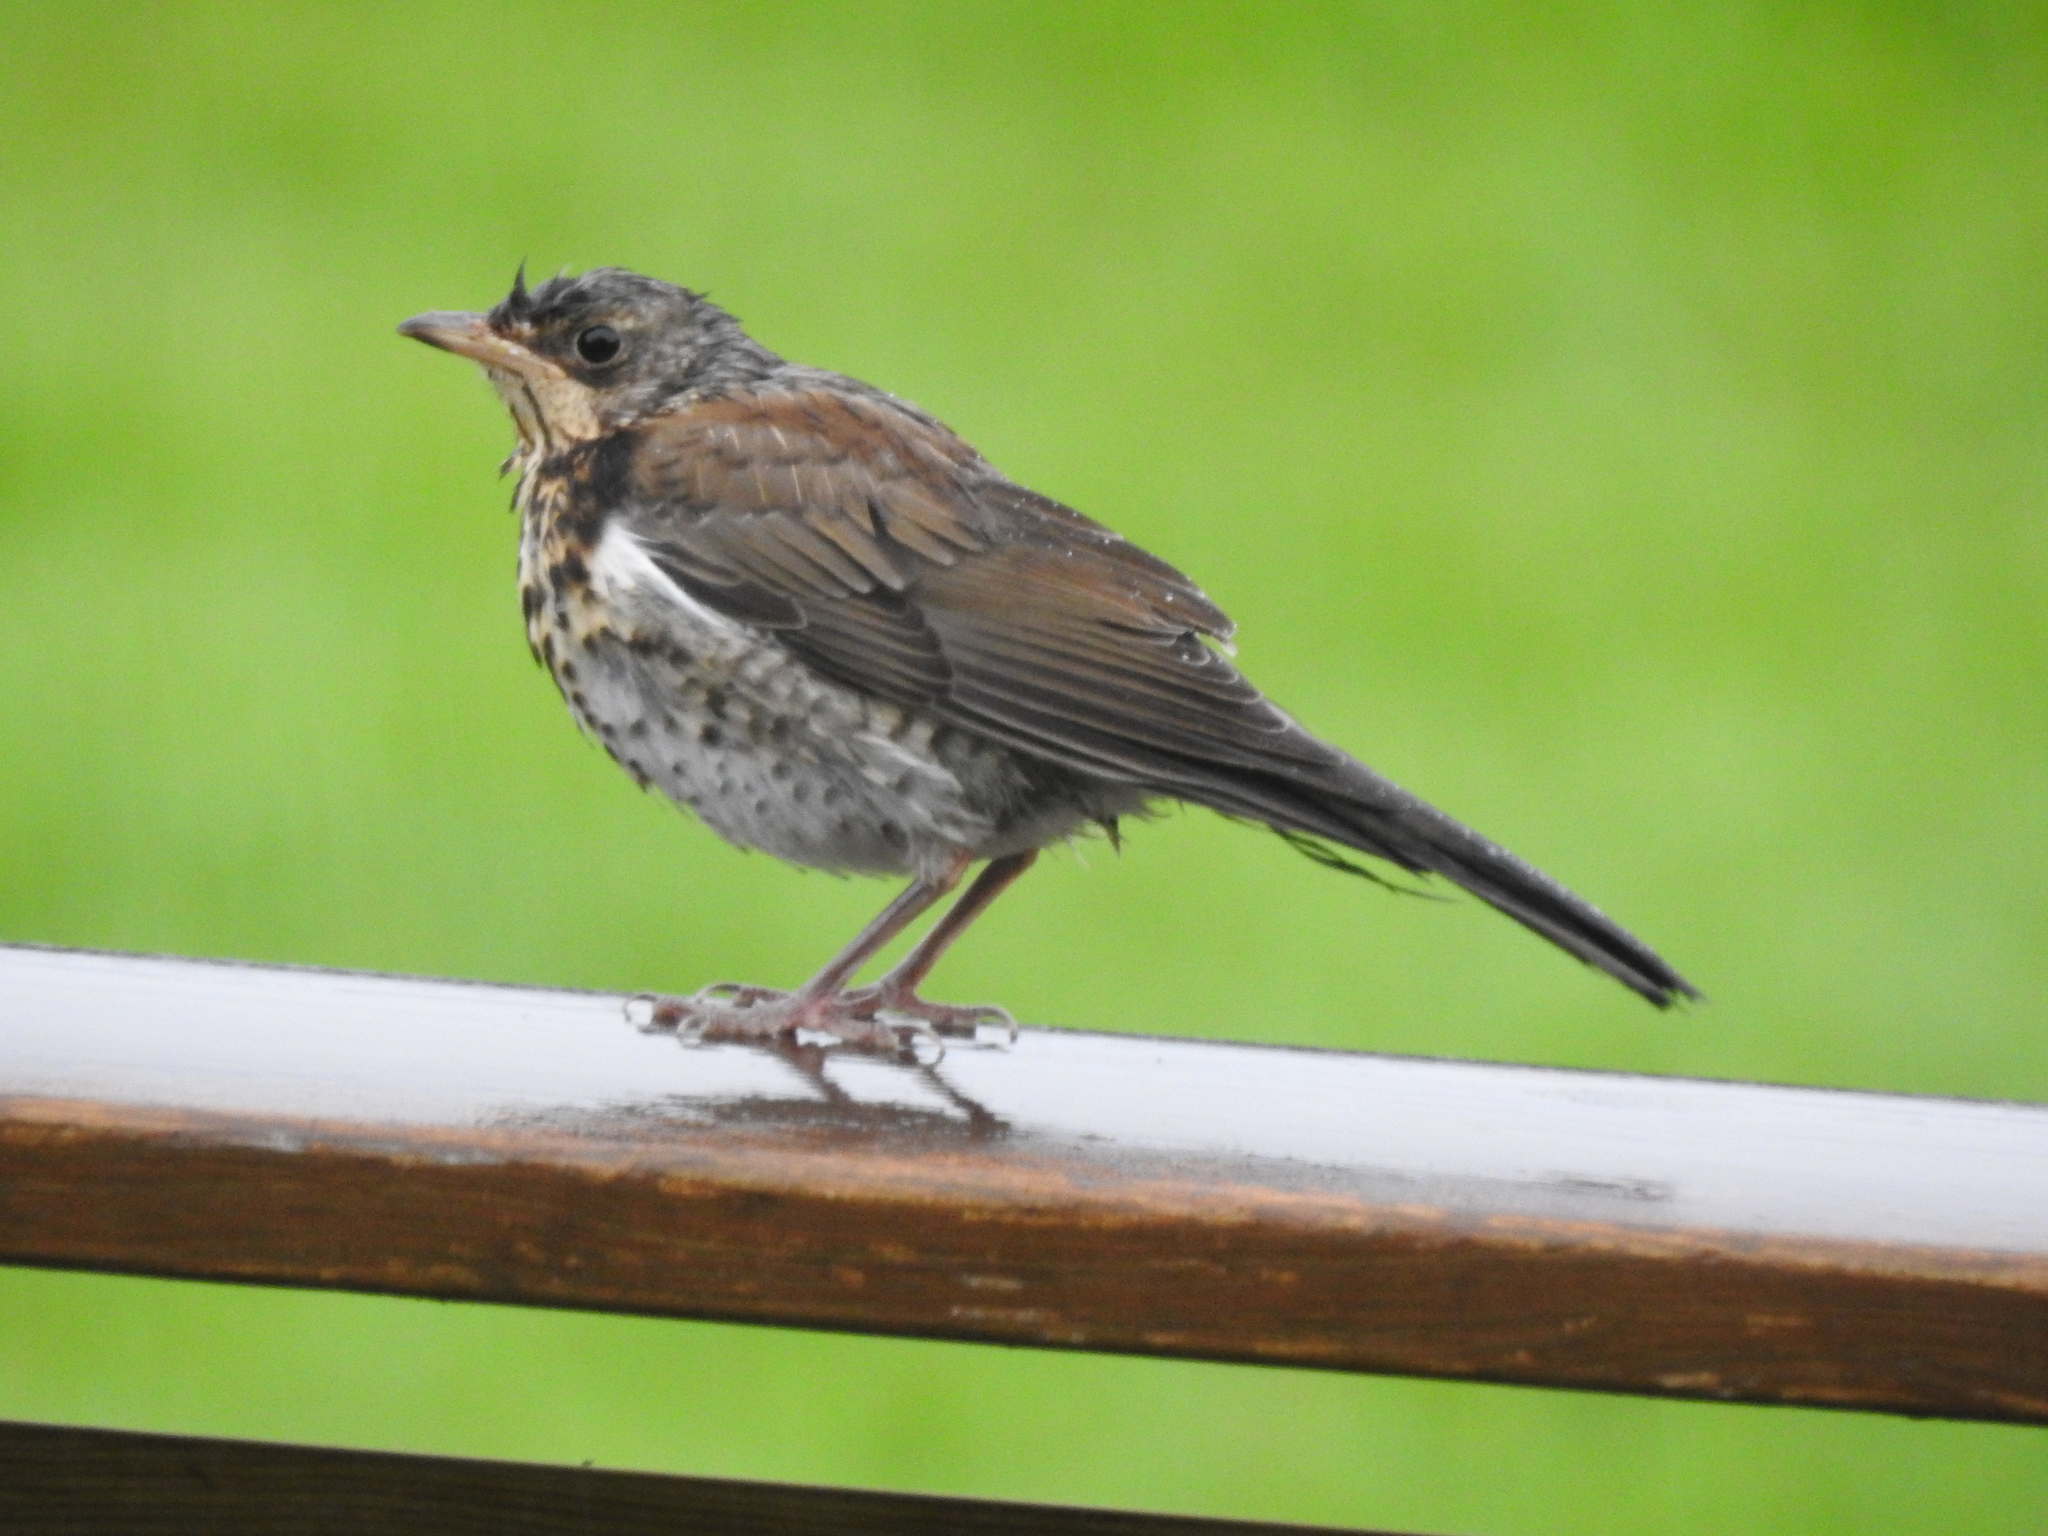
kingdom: Animalia
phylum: Chordata
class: Aves
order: Passeriformes
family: Turdidae
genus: Turdus
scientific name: Turdus pilaris
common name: Fieldfare
